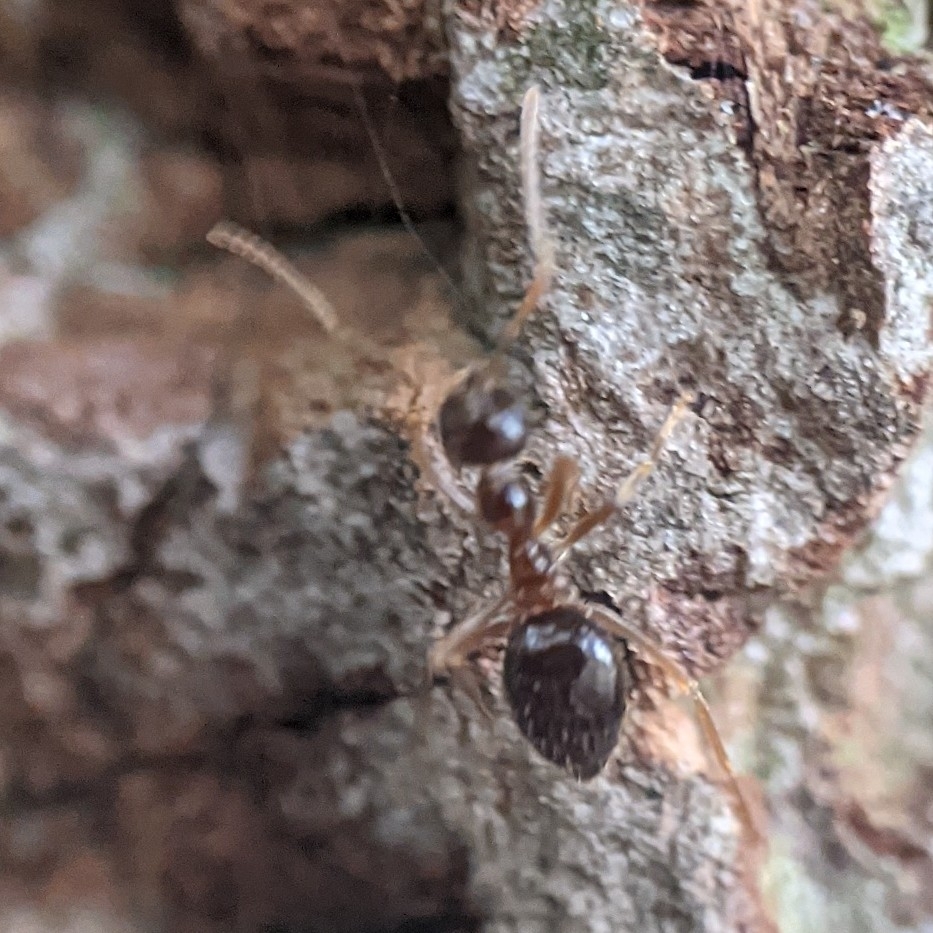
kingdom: Animalia
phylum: Arthropoda
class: Insecta
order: Hymenoptera
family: Formicidae
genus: Prenolepis
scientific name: Prenolepis imparis
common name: Small honey ant
